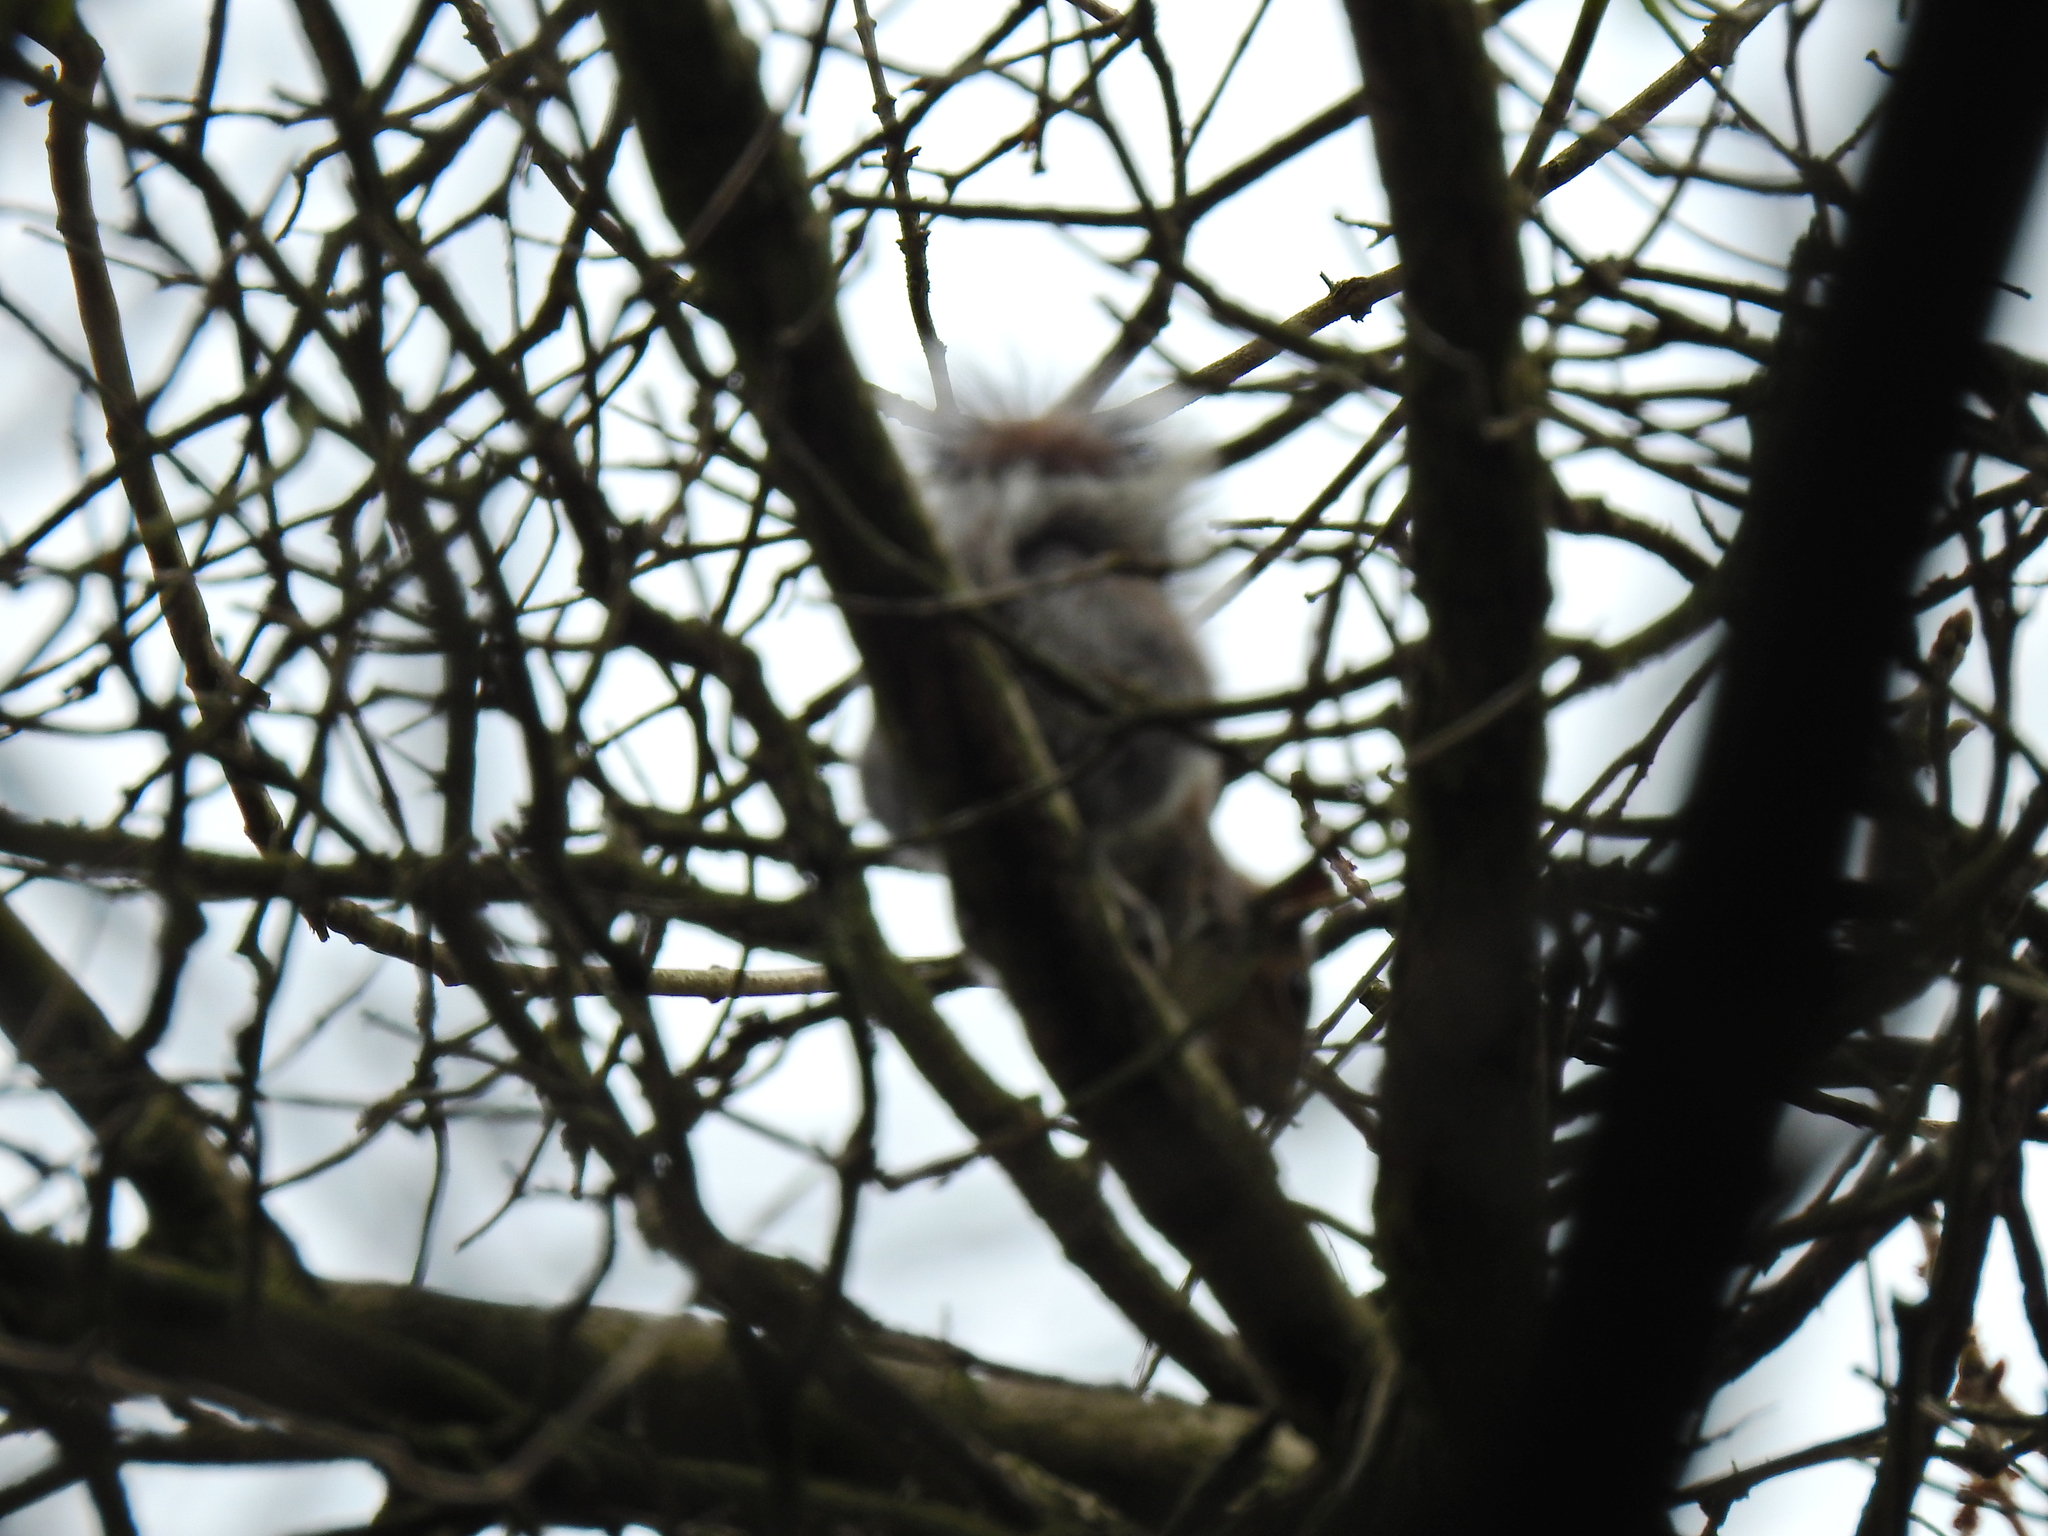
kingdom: Animalia
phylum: Chordata
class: Mammalia
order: Rodentia
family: Sciuridae
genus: Sciurus
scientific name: Sciurus carolinensis
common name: Eastern gray squirrel
